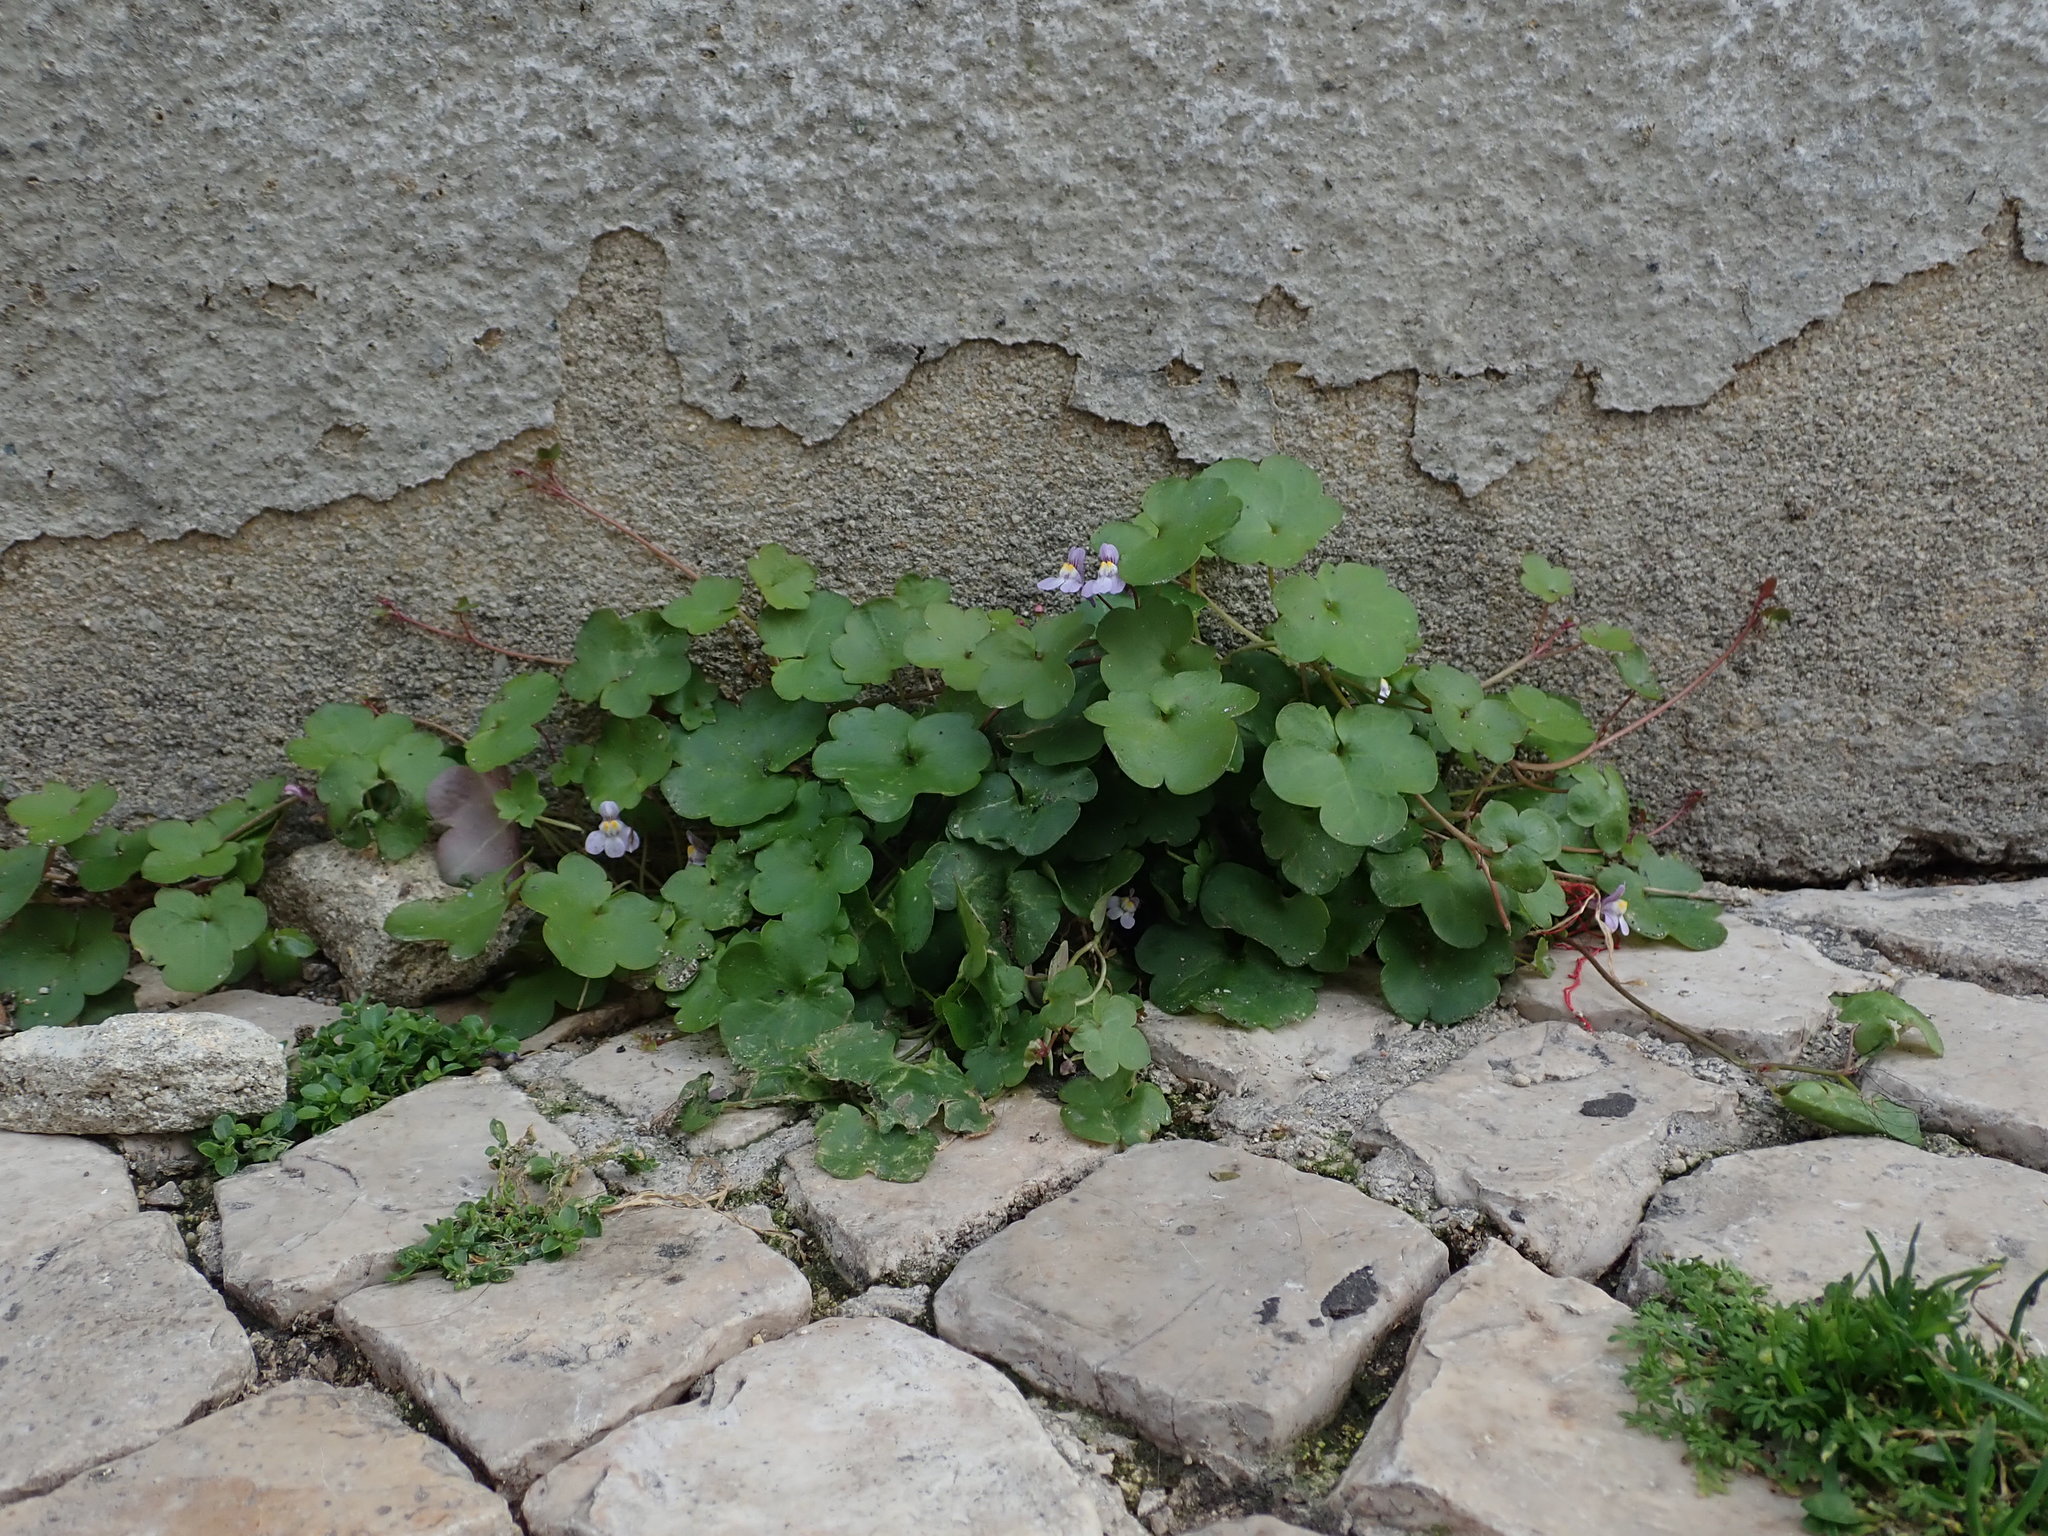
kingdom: Plantae
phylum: Tracheophyta
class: Magnoliopsida
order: Lamiales
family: Plantaginaceae
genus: Cymbalaria
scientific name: Cymbalaria muralis
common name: Ivy-leaved toadflax
